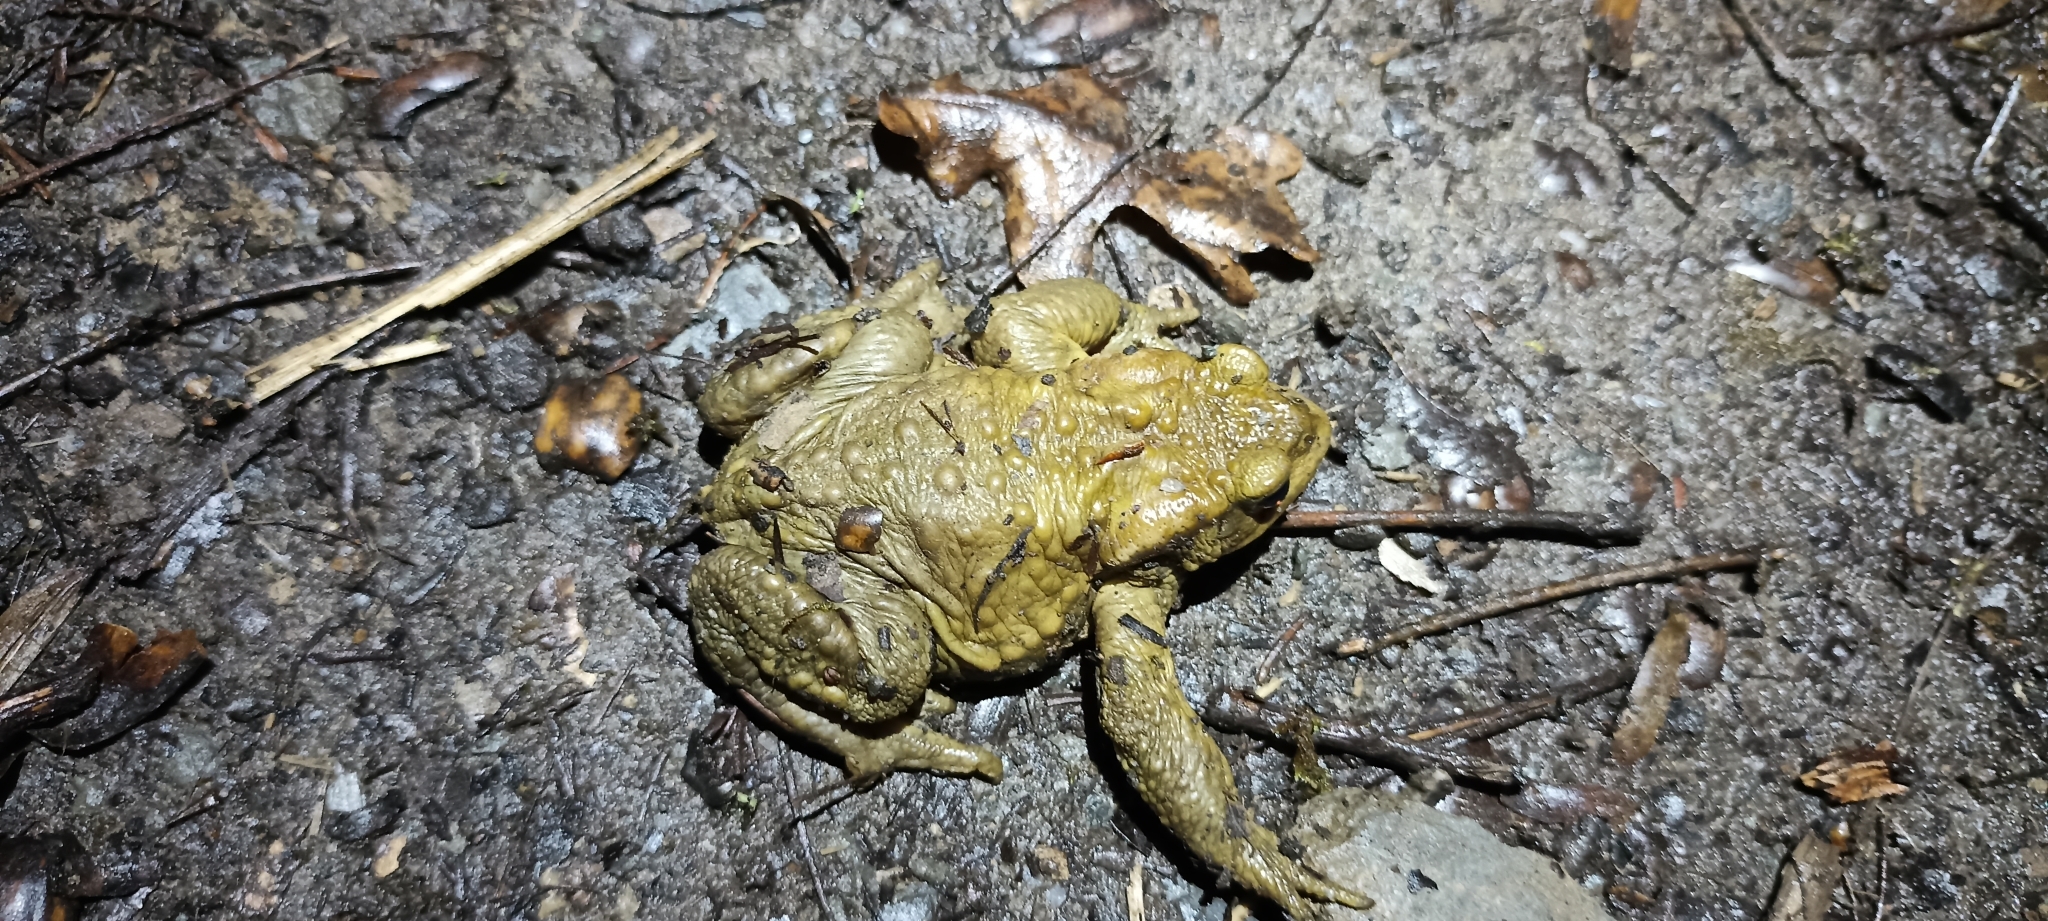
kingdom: Animalia
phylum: Chordata
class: Amphibia
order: Anura
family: Bufonidae
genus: Bufo
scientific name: Bufo spinosus
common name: Western common toad
